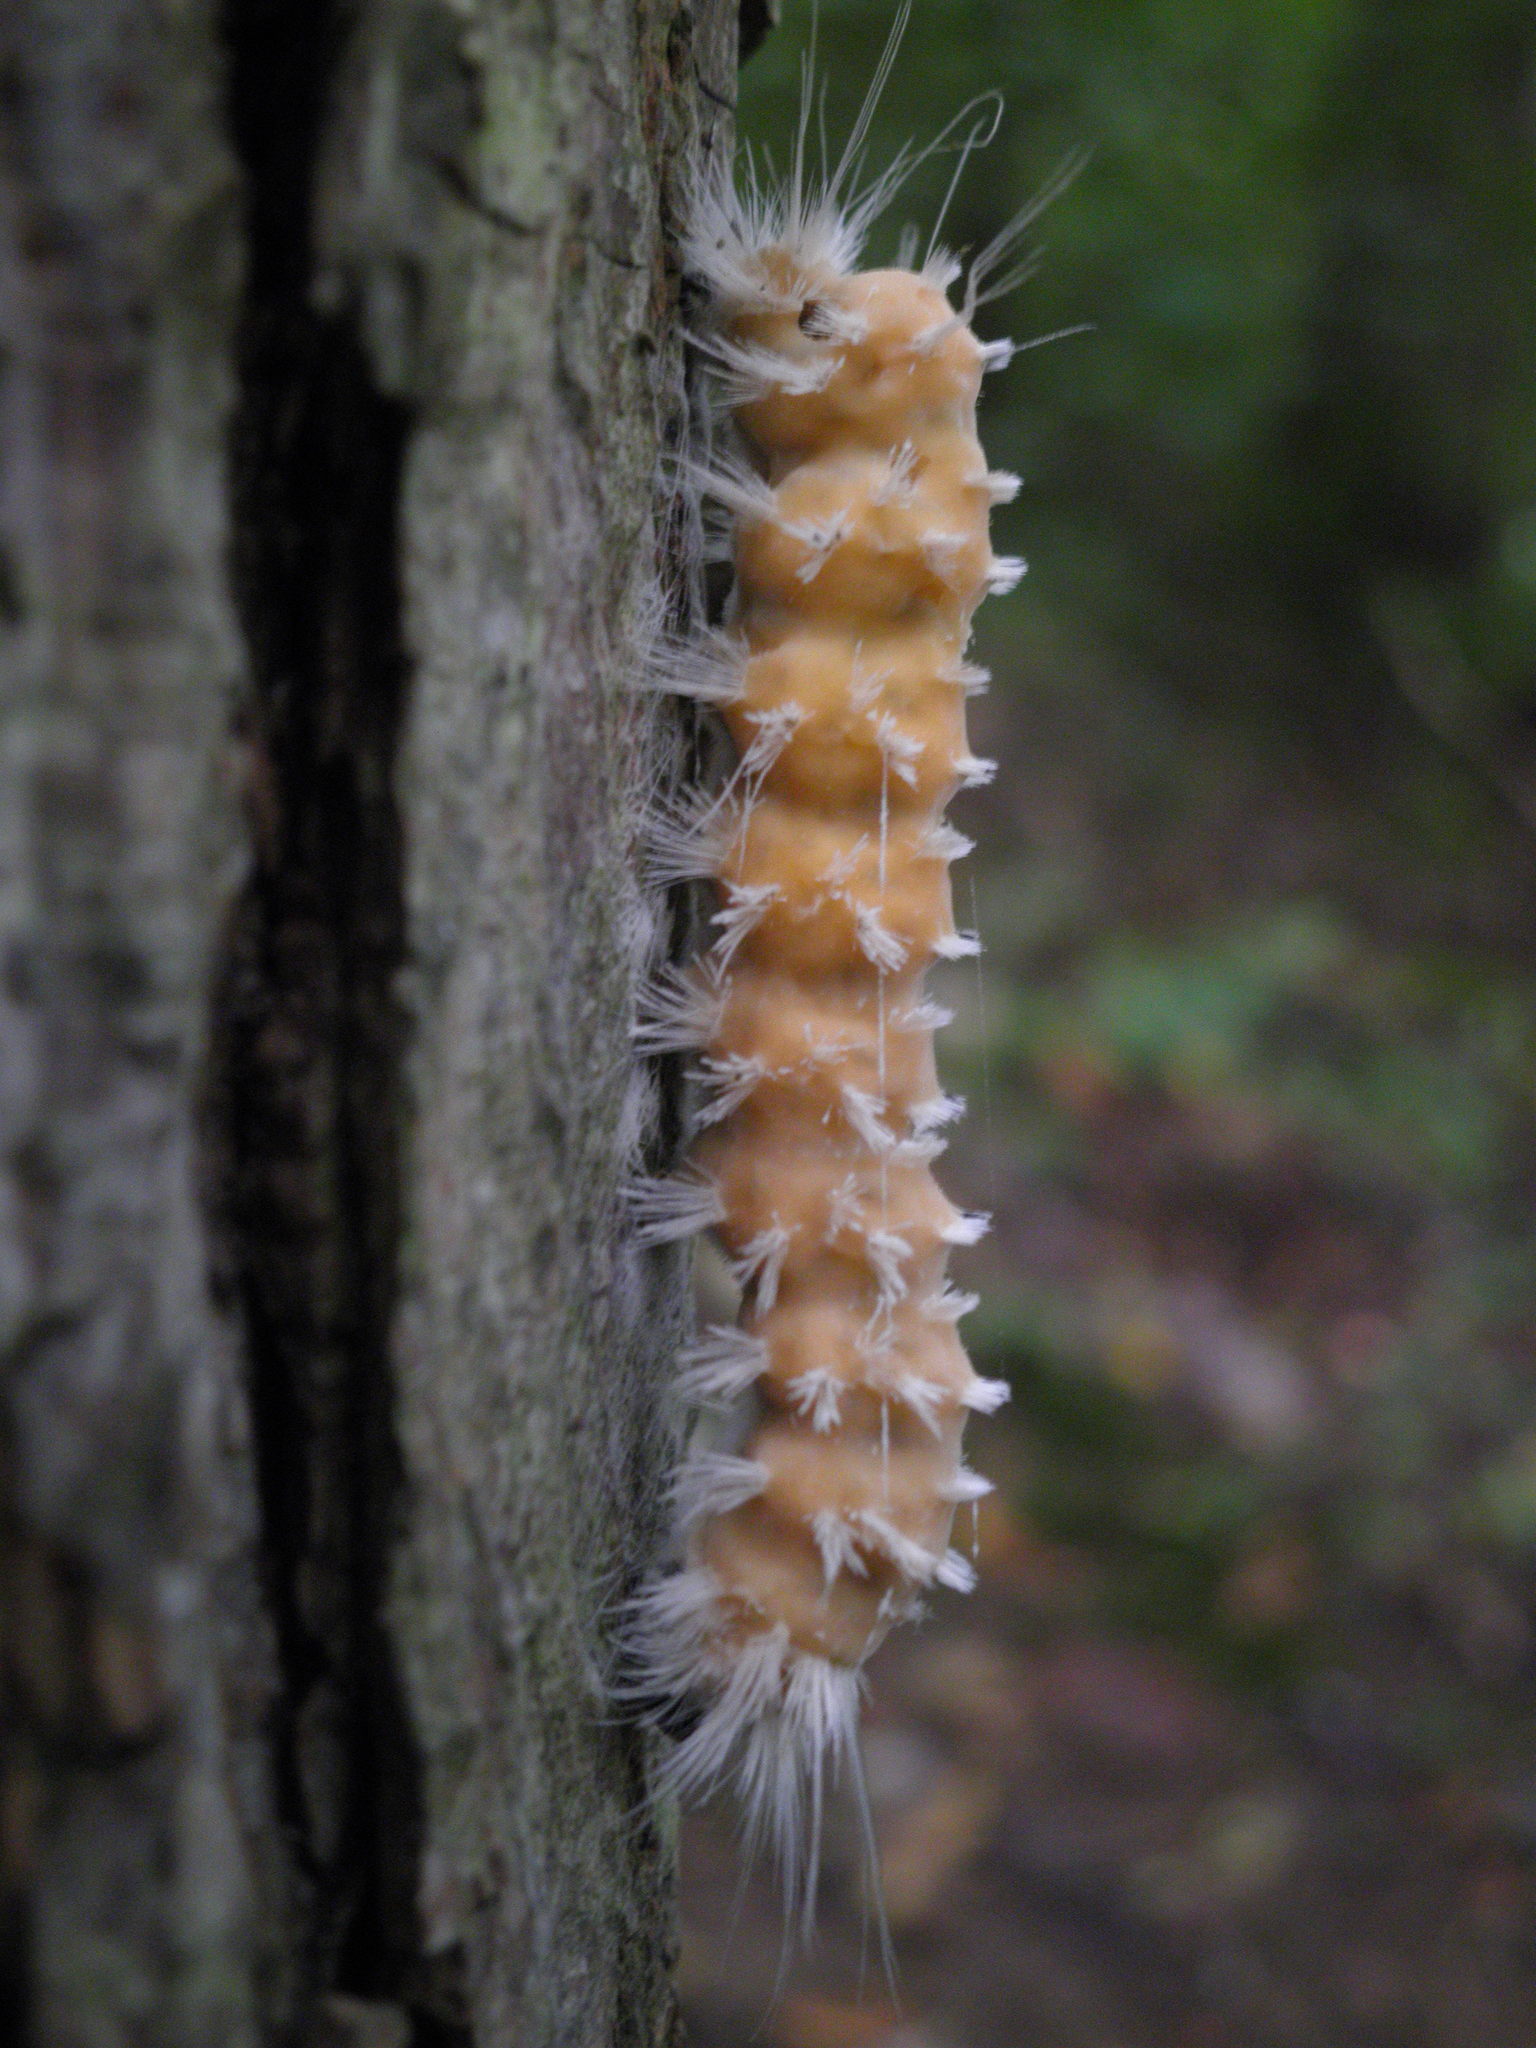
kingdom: Animalia
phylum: Arthropoda
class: Insecta
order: Lepidoptera
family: Erebidae
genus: Lophocampa
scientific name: Lophocampa caryae
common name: Hickory tussock moth
